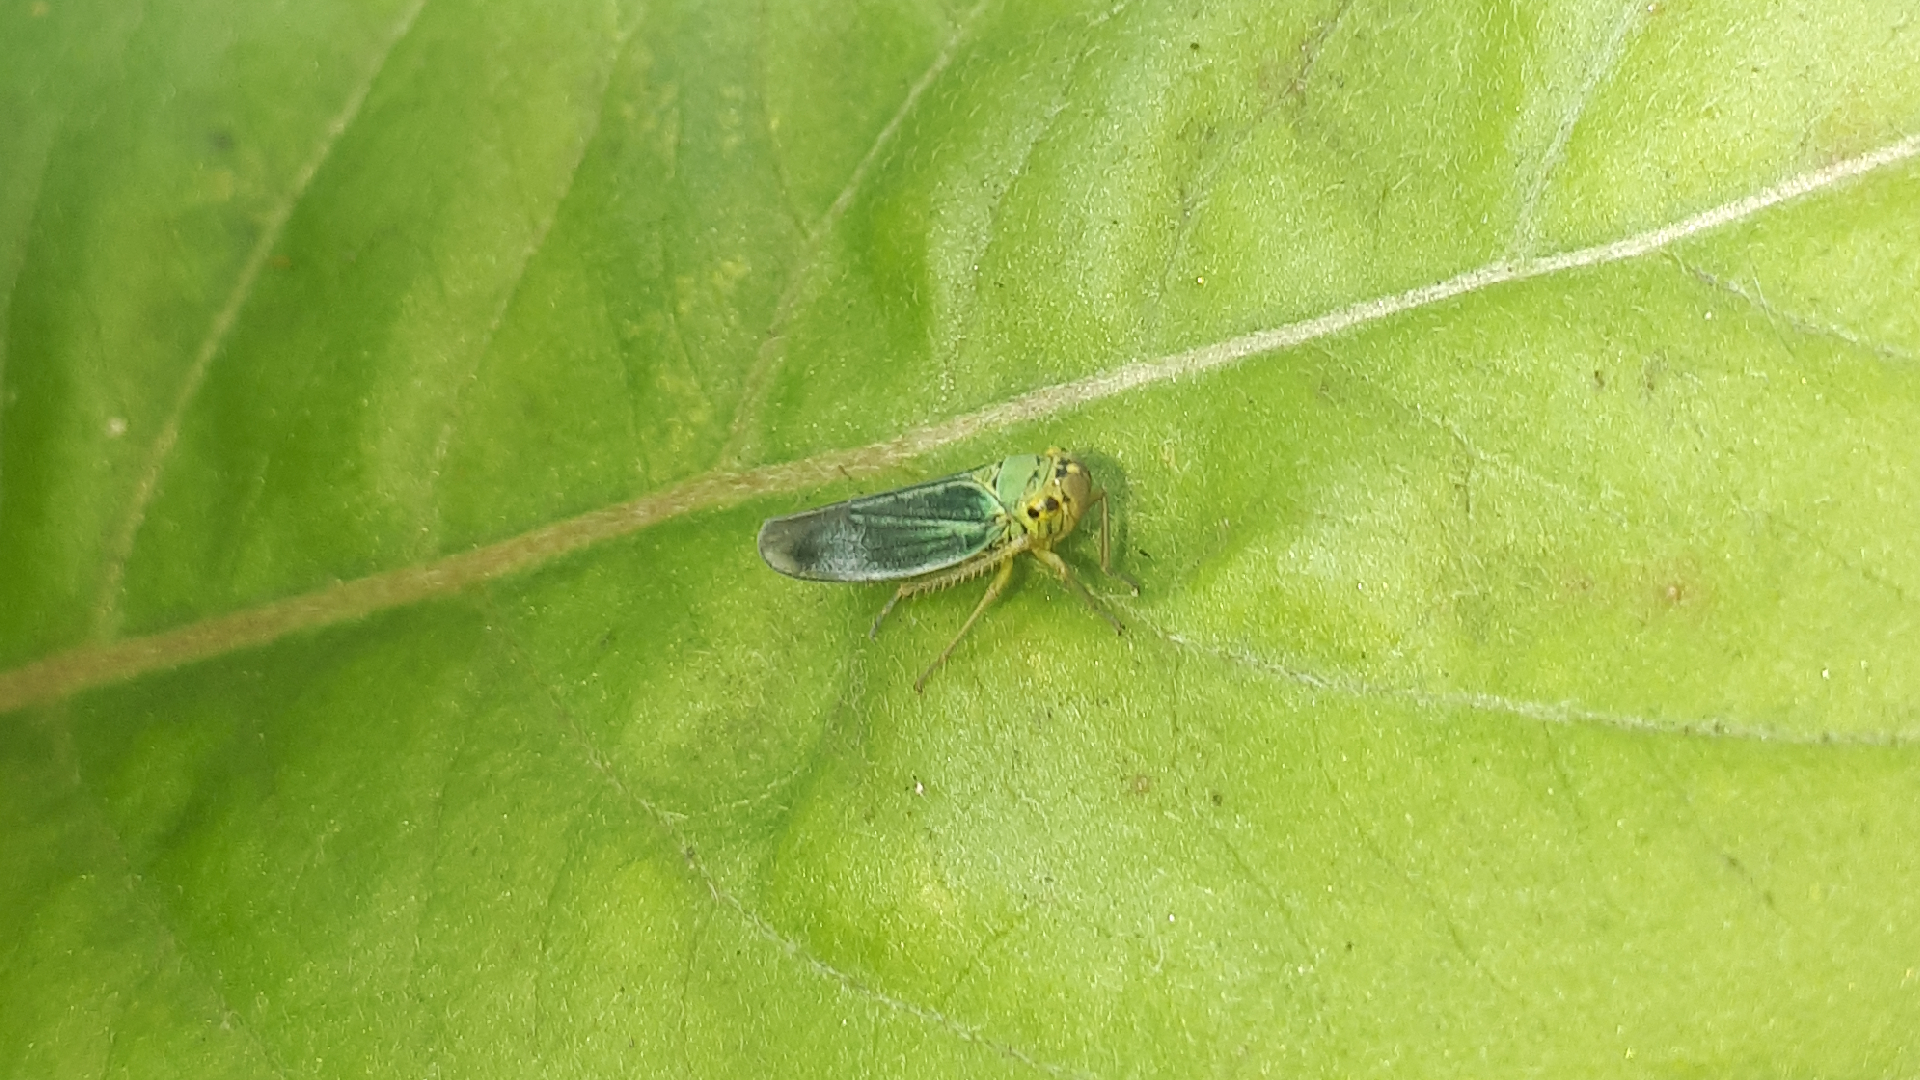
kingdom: Animalia
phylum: Arthropoda
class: Insecta
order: Hemiptera
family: Cicadellidae
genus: Cicadella
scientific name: Cicadella viridis
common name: Leafhopper
